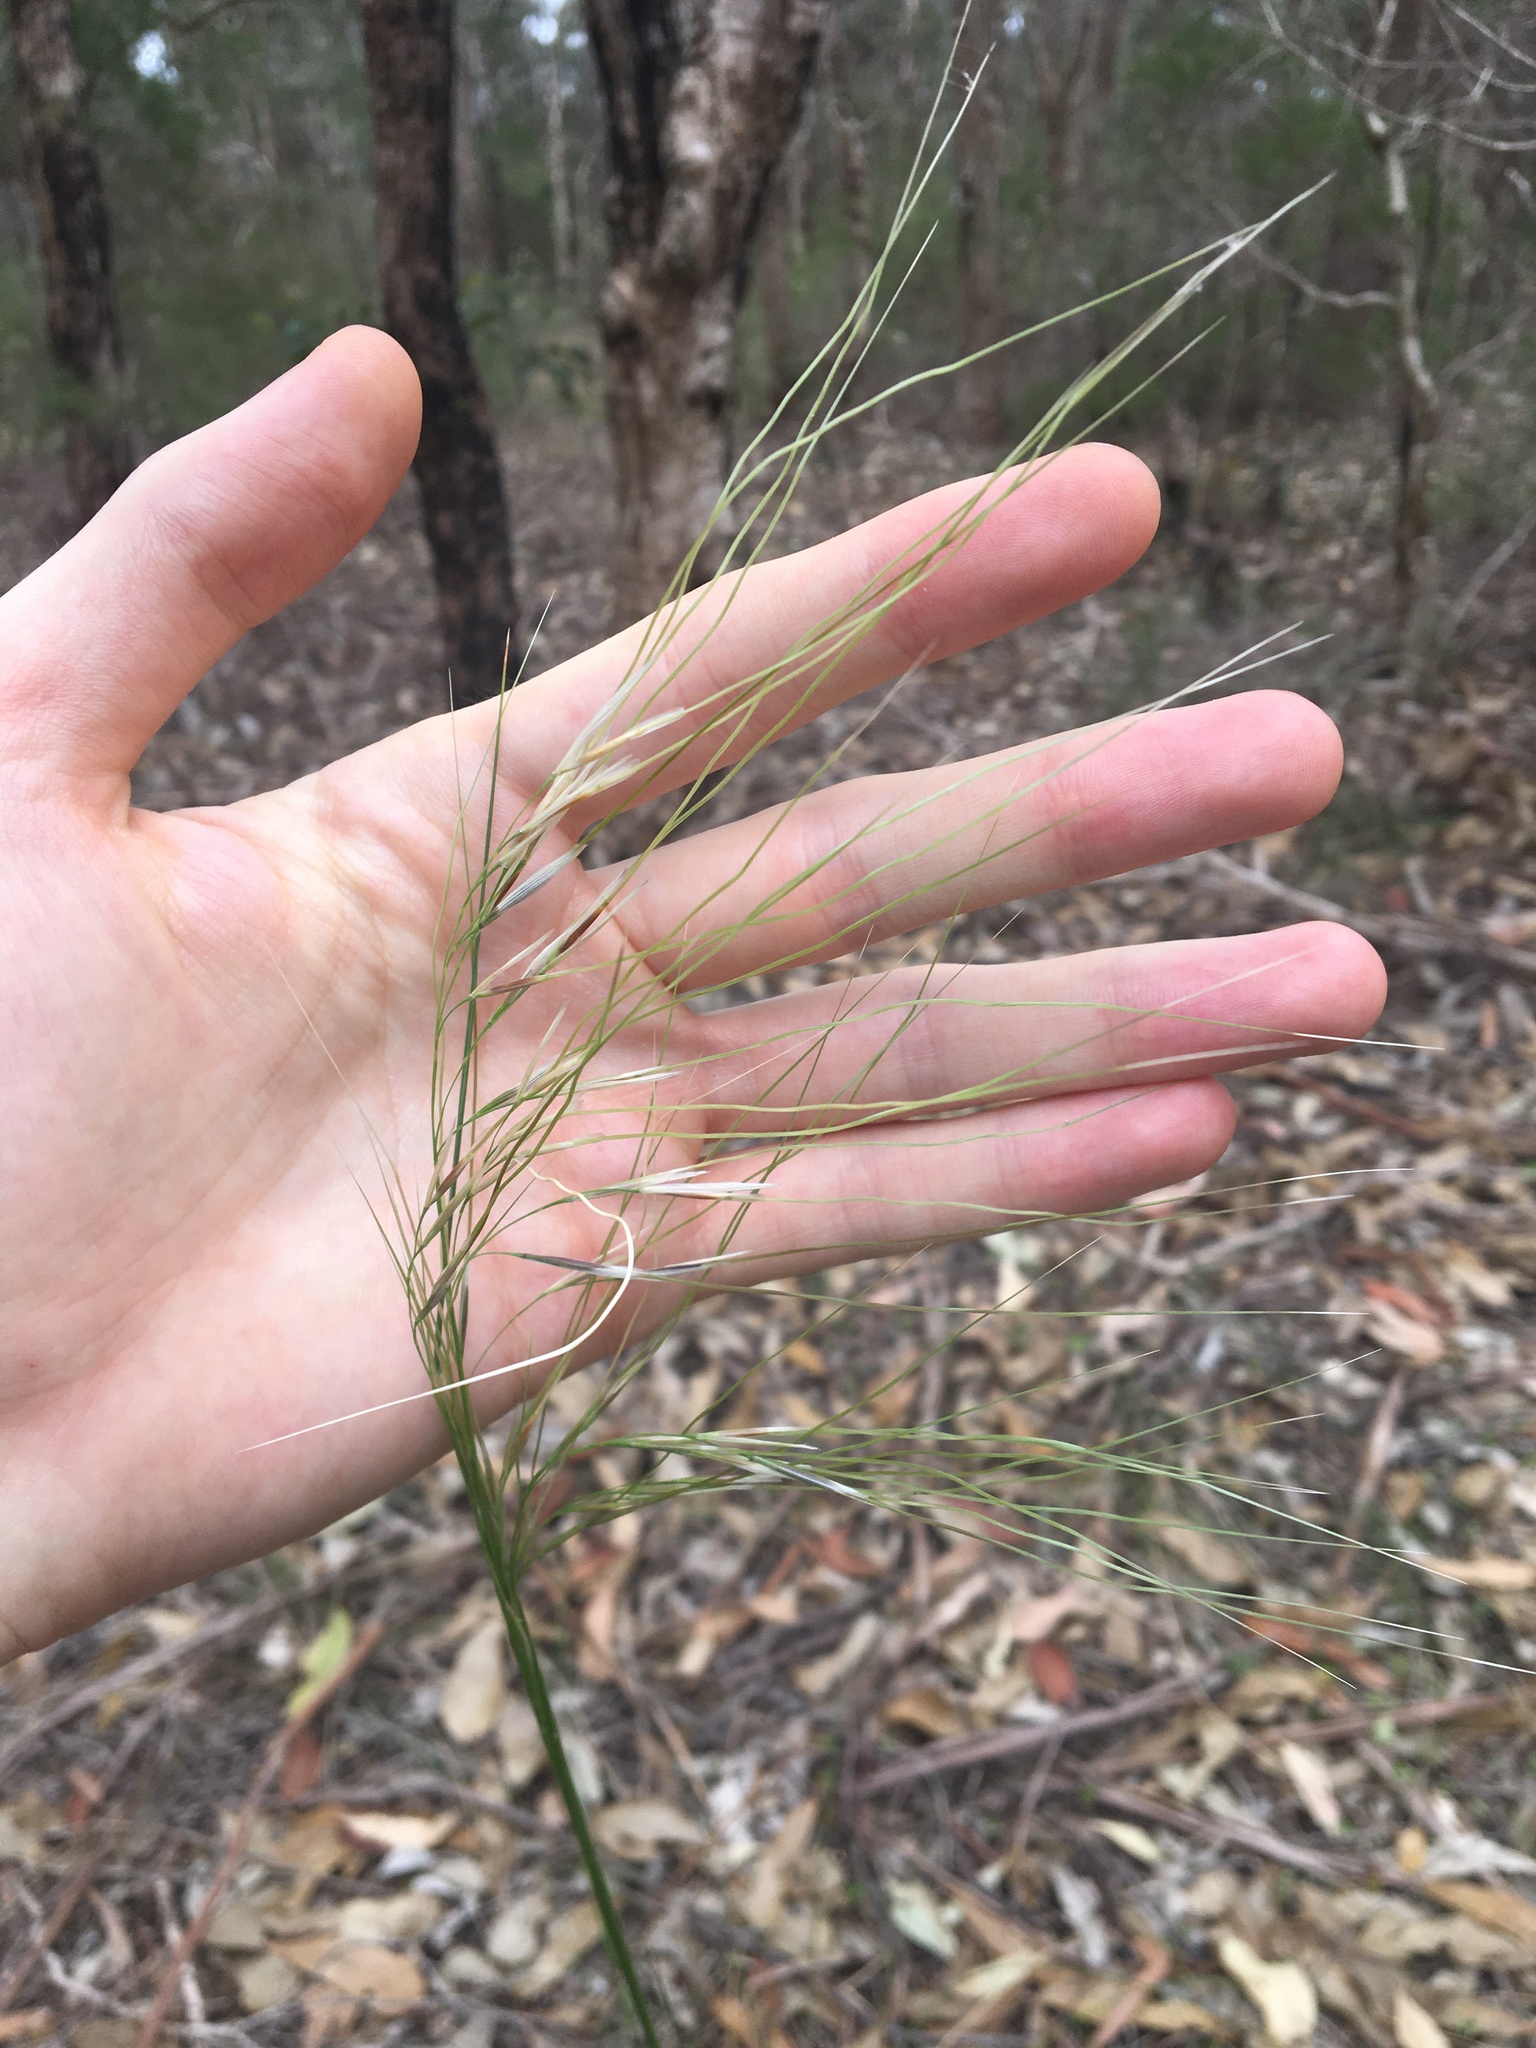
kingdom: Plantae
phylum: Tracheophyta
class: Liliopsida
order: Poales
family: Poaceae
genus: Austrostipa
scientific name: Austrostipa rudis
